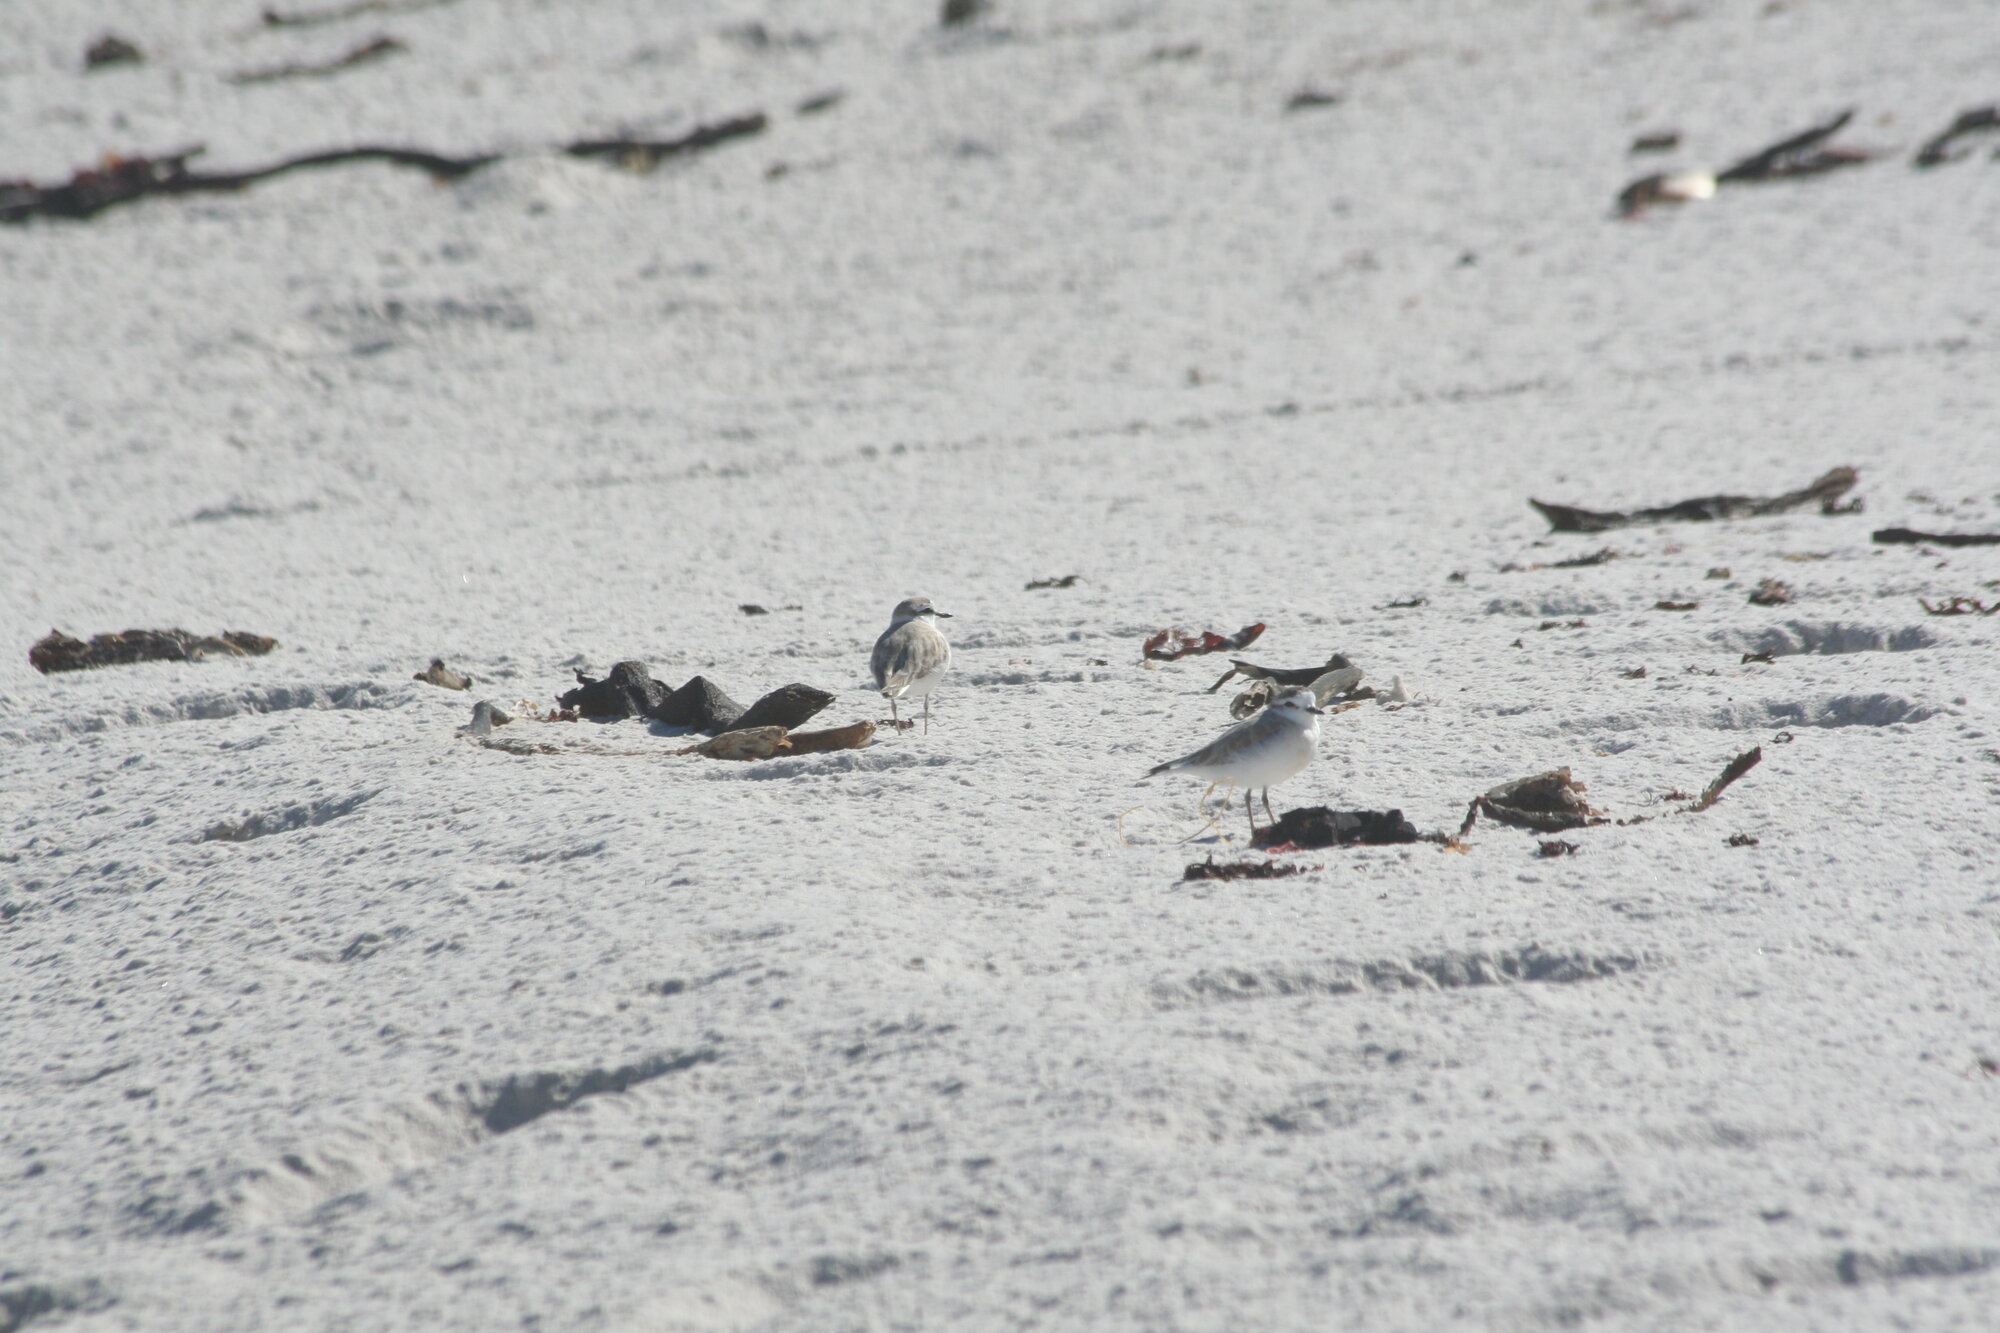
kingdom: Animalia
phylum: Chordata
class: Aves
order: Charadriiformes
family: Charadriidae
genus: Anarhynchus
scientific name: Anarhynchus
